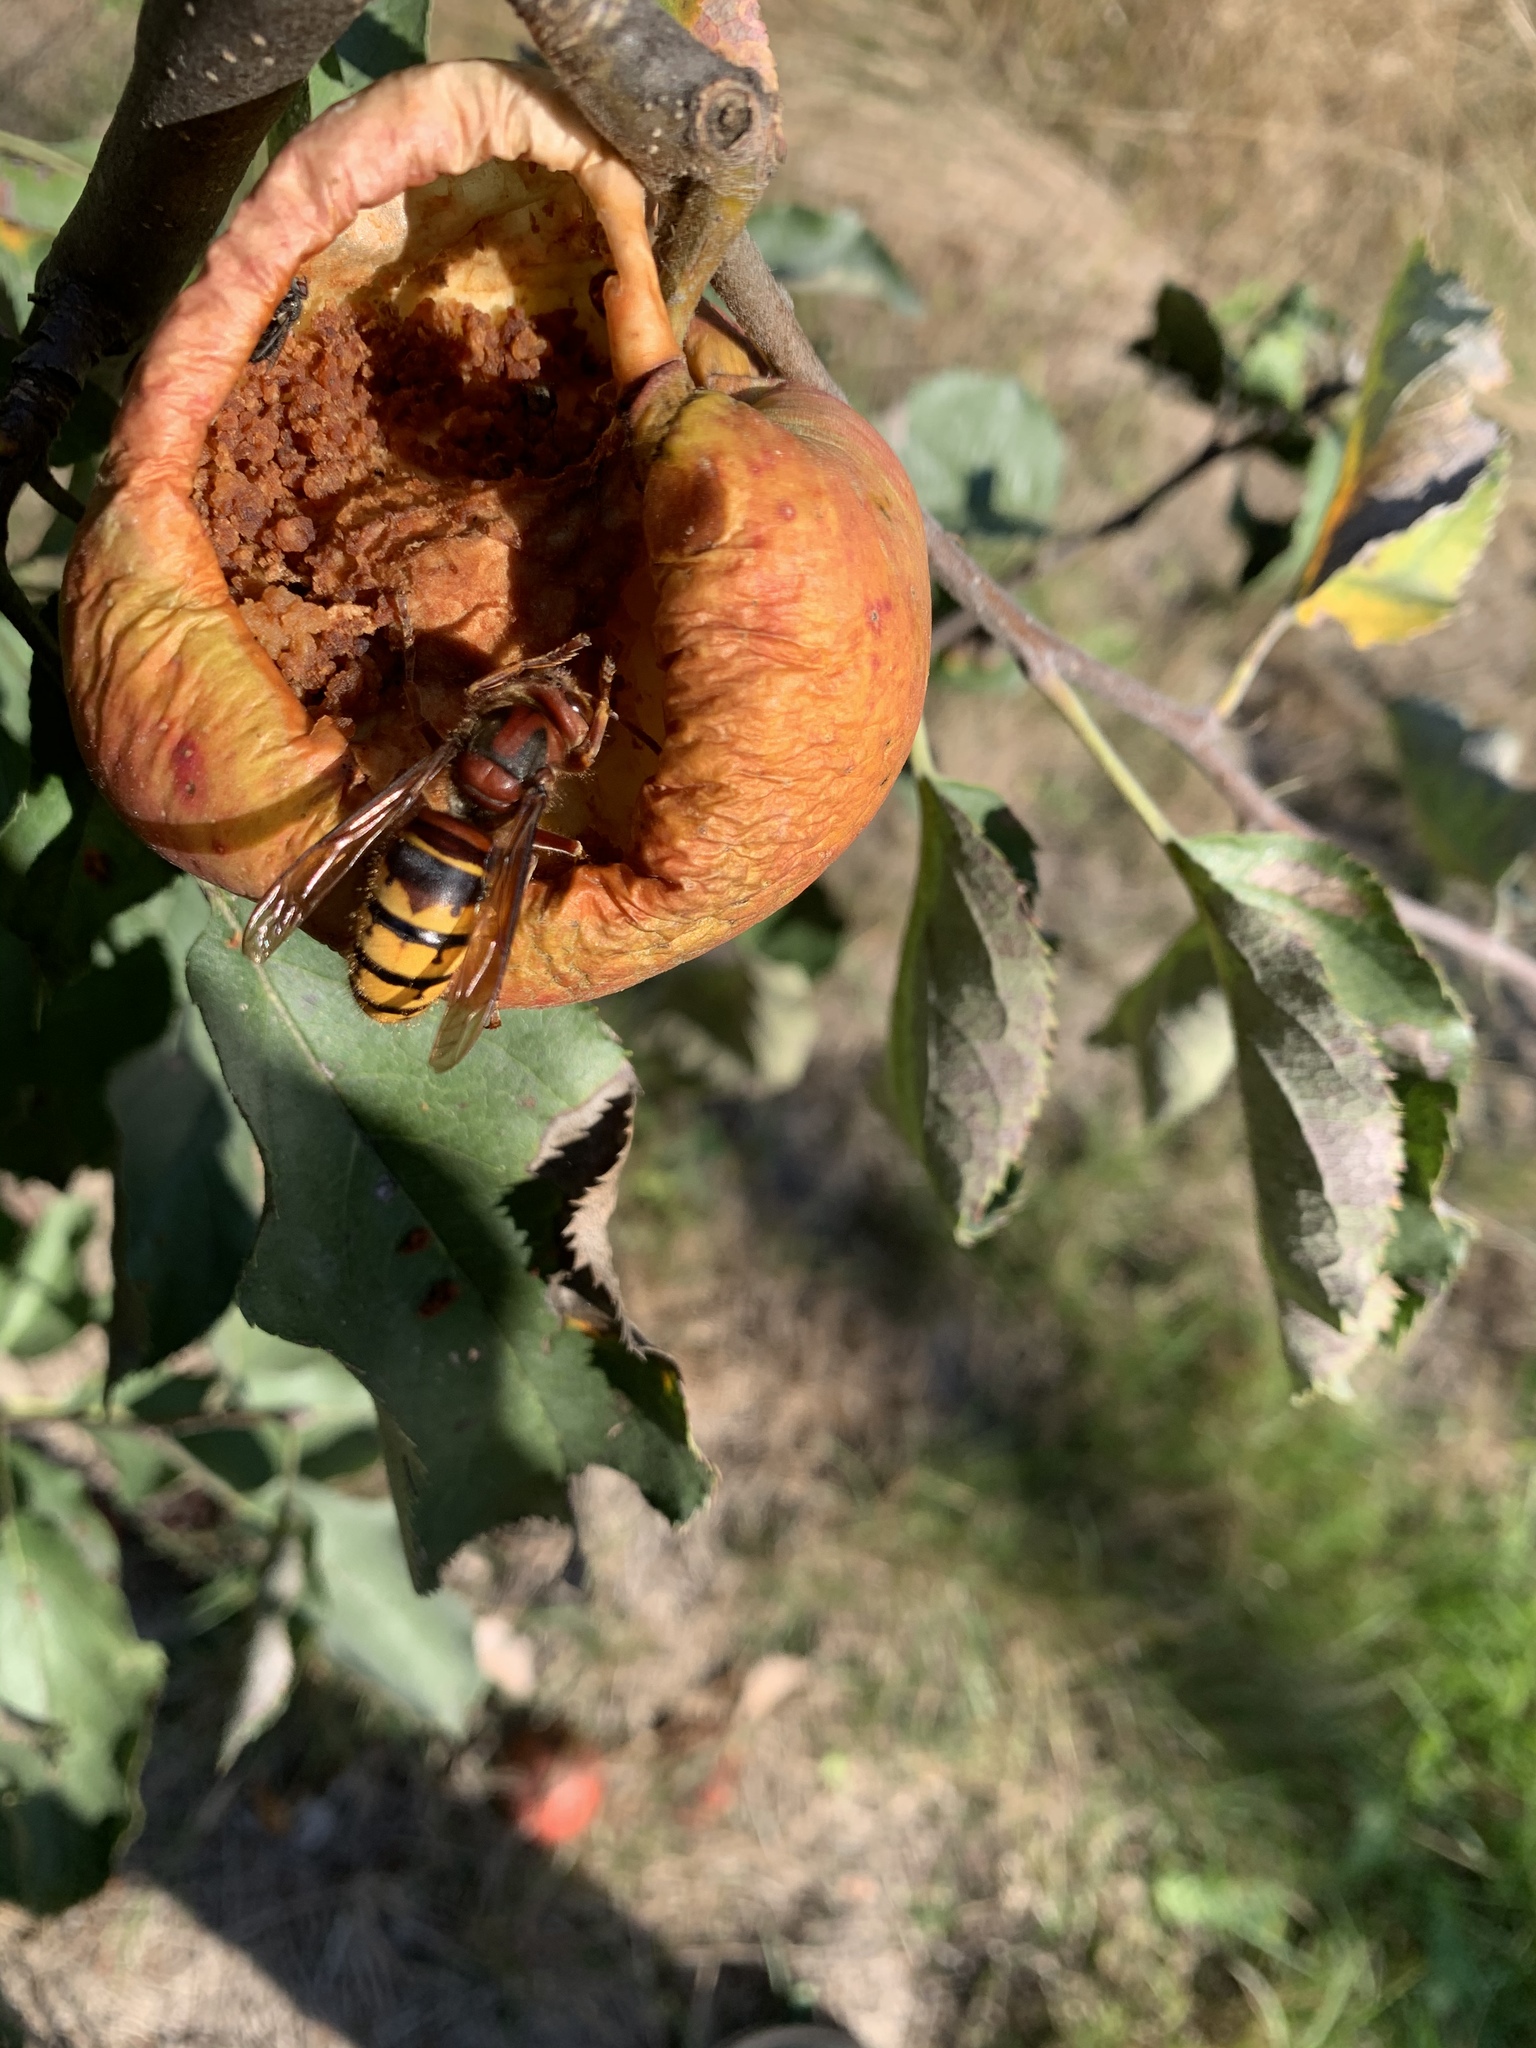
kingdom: Animalia
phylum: Arthropoda
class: Insecta
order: Hymenoptera
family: Vespidae
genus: Vespa
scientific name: Vespa crabro
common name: Hornet
